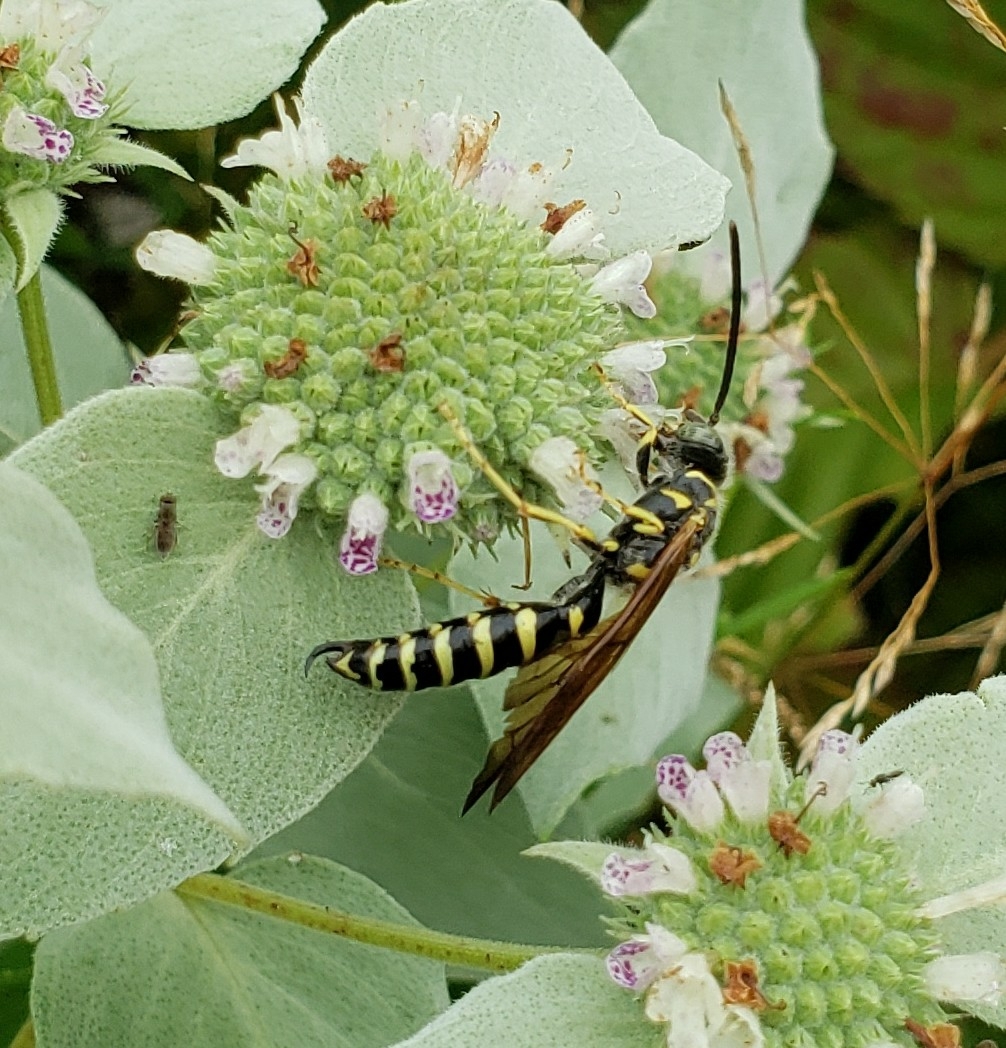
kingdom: Animalia
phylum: Arthropoda
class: Insecta
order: Hymenoptera
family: Tiphiidae
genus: Myzinum
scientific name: Myzinum quinquecinctum
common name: Five-banded thynnid wasp
